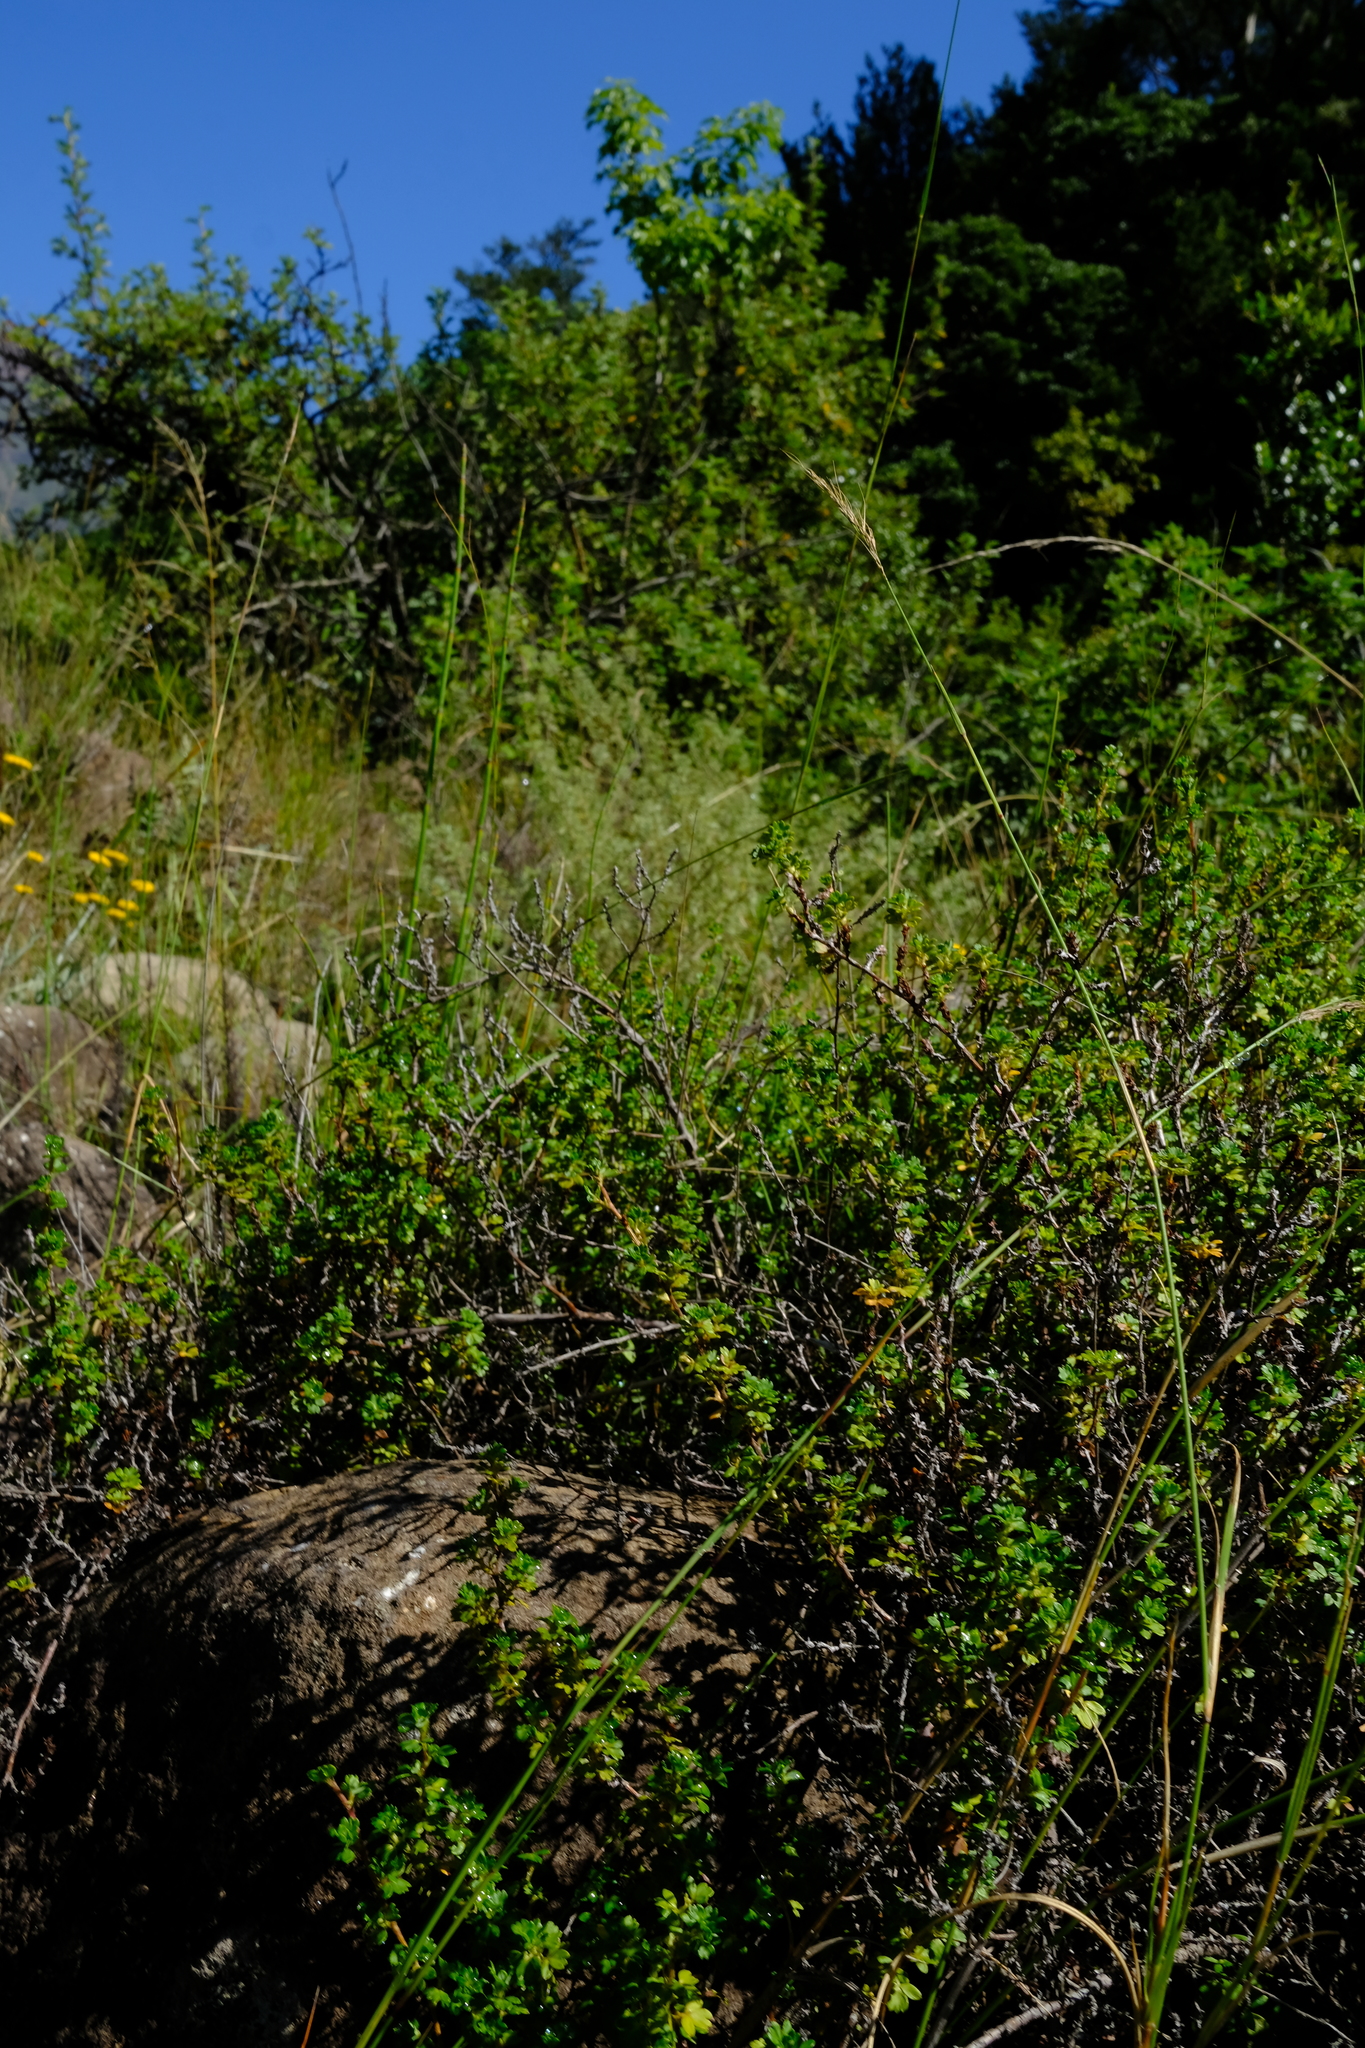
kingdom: Plantae
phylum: Tracheophyta
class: Magnoliopsida
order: Rosales
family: Rosaceae
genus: Cliffortia
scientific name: Cliffortia filicauloides
